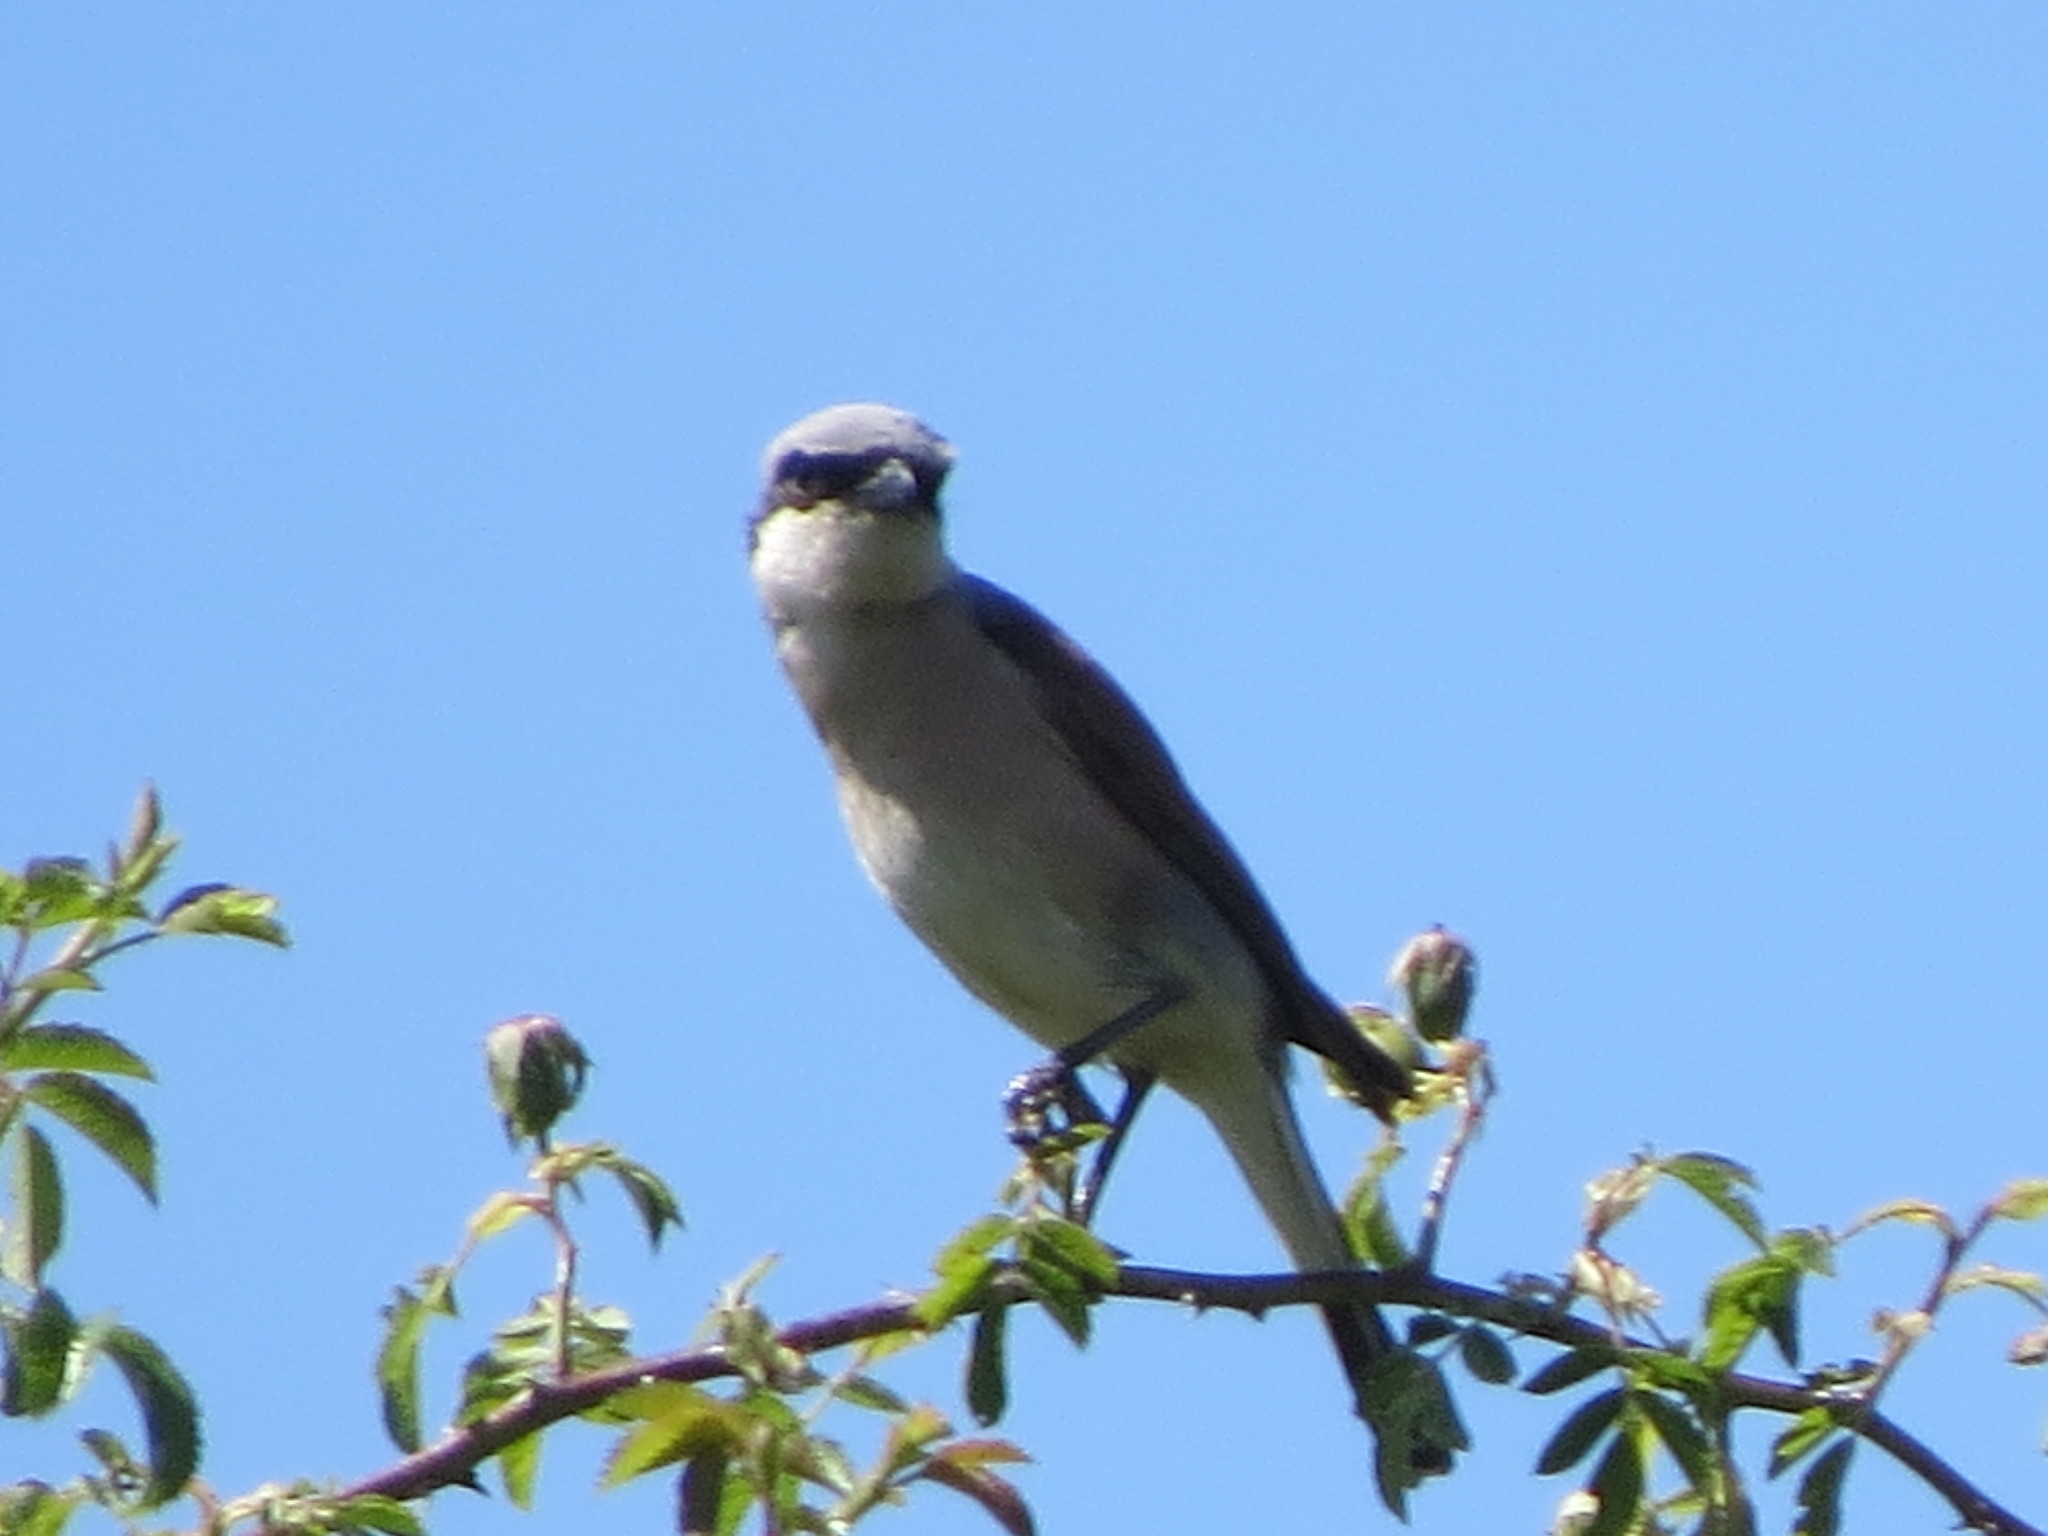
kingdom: Animalia
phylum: Chordata
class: Aves
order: Passeriformes
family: Laniidae
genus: Lanius
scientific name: Lanius collurio
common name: Red-backed shrike
